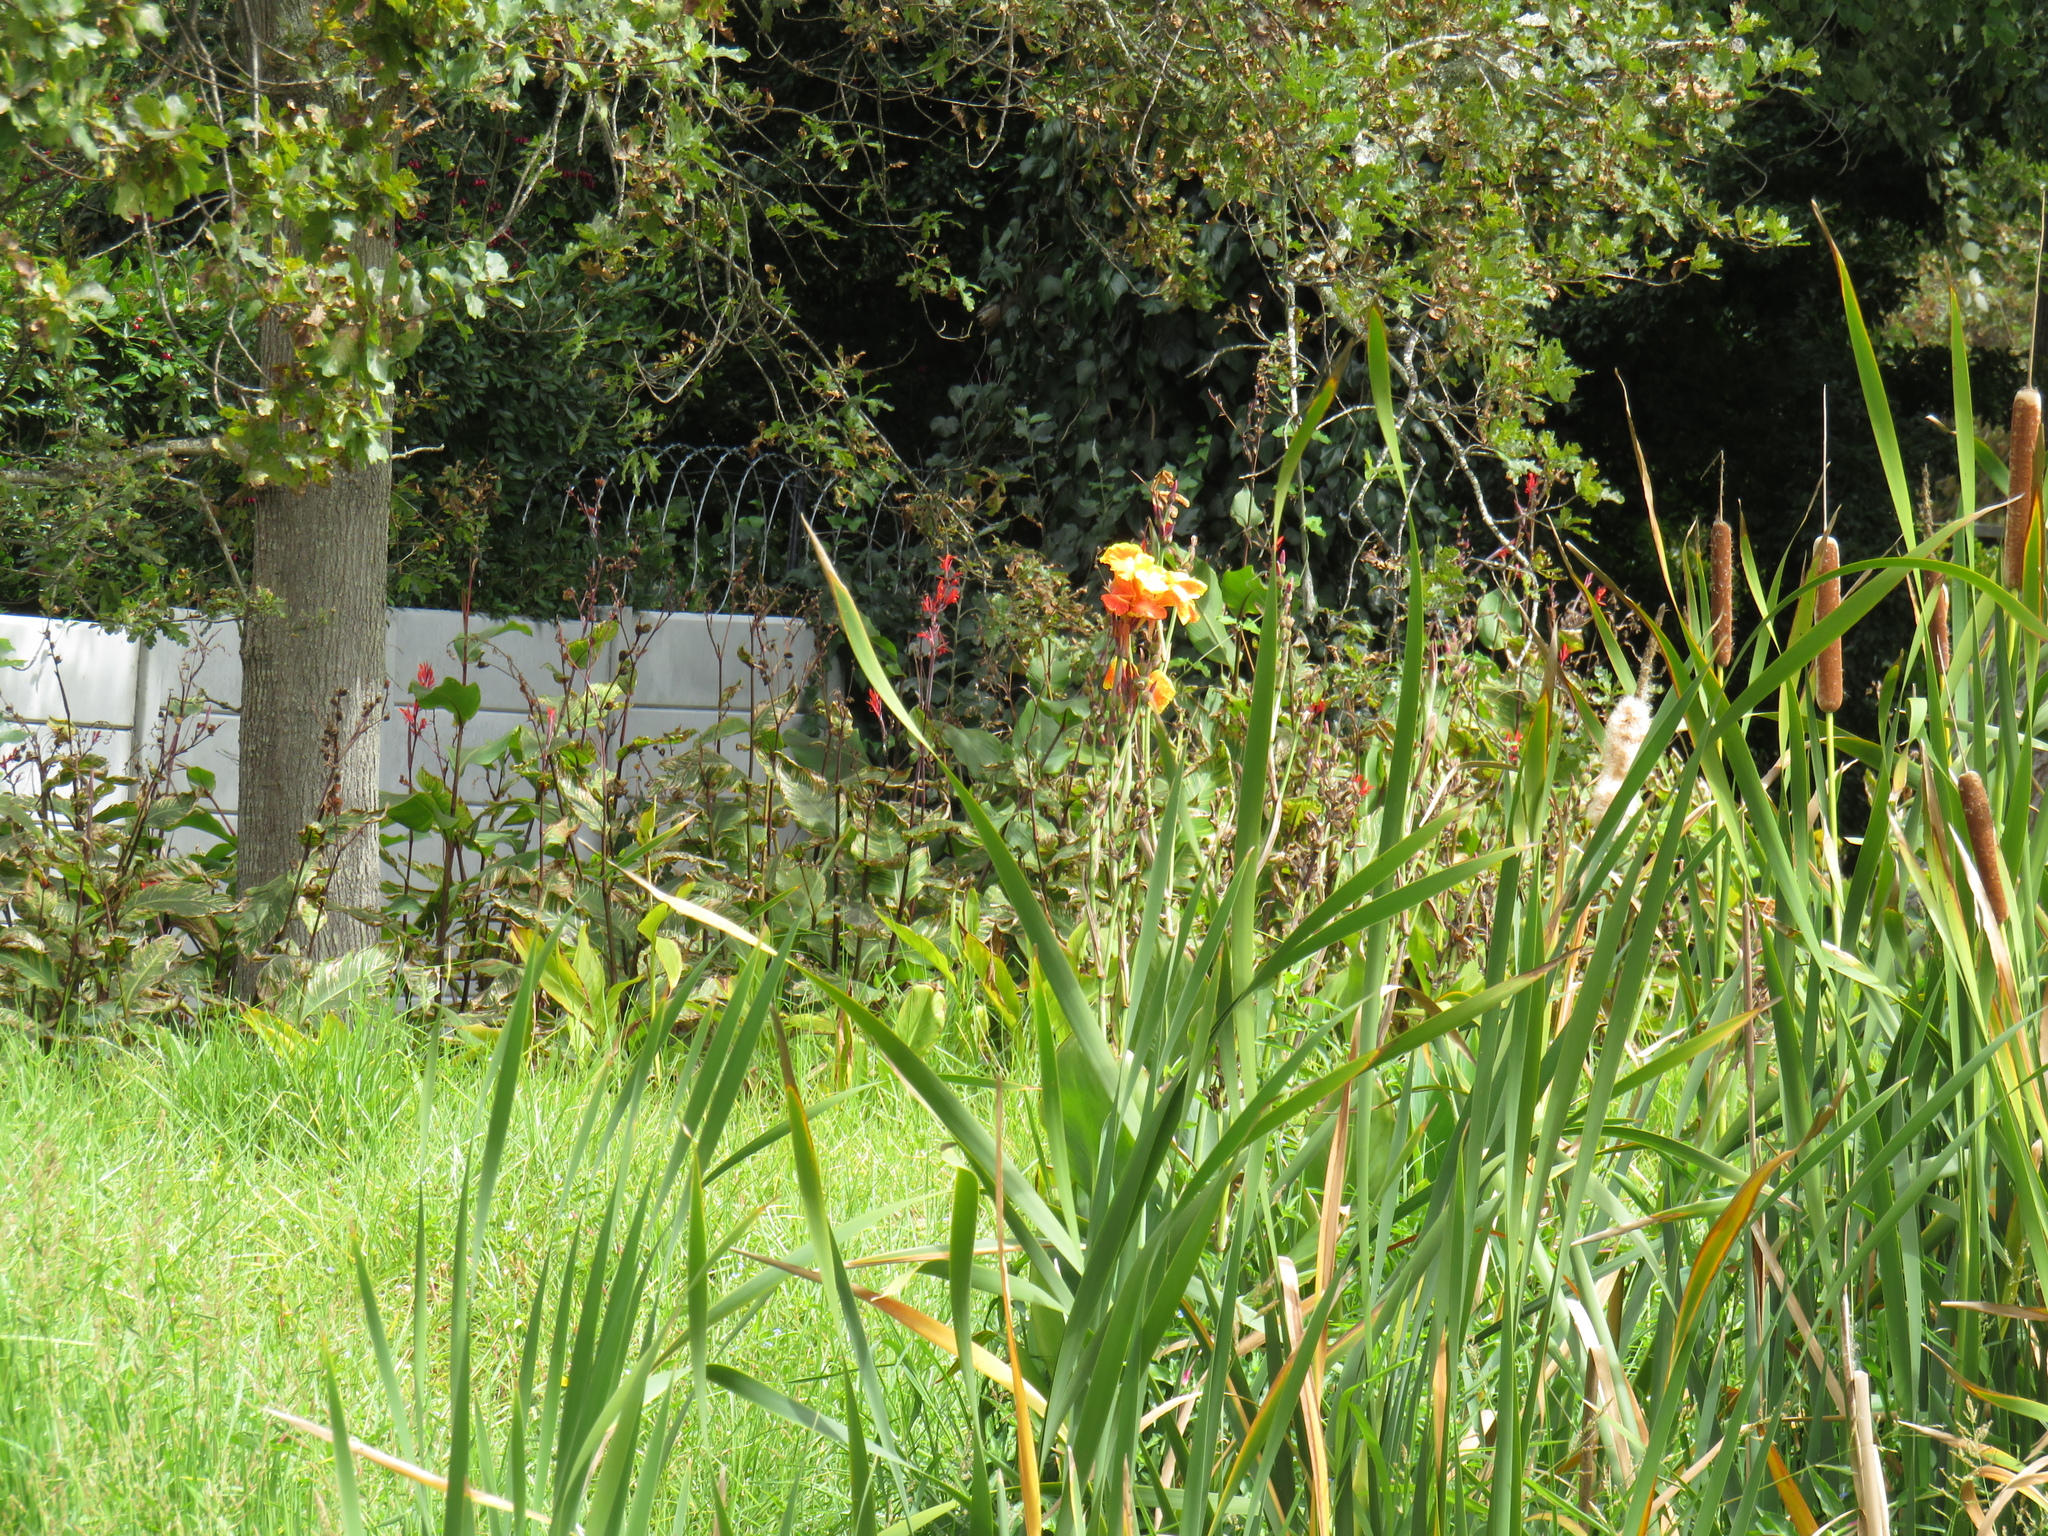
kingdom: Plantae
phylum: Tracheophyta
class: Liliopsida
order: Zingiberales
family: Cannaceae
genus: Canna
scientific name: Canna hybrida
